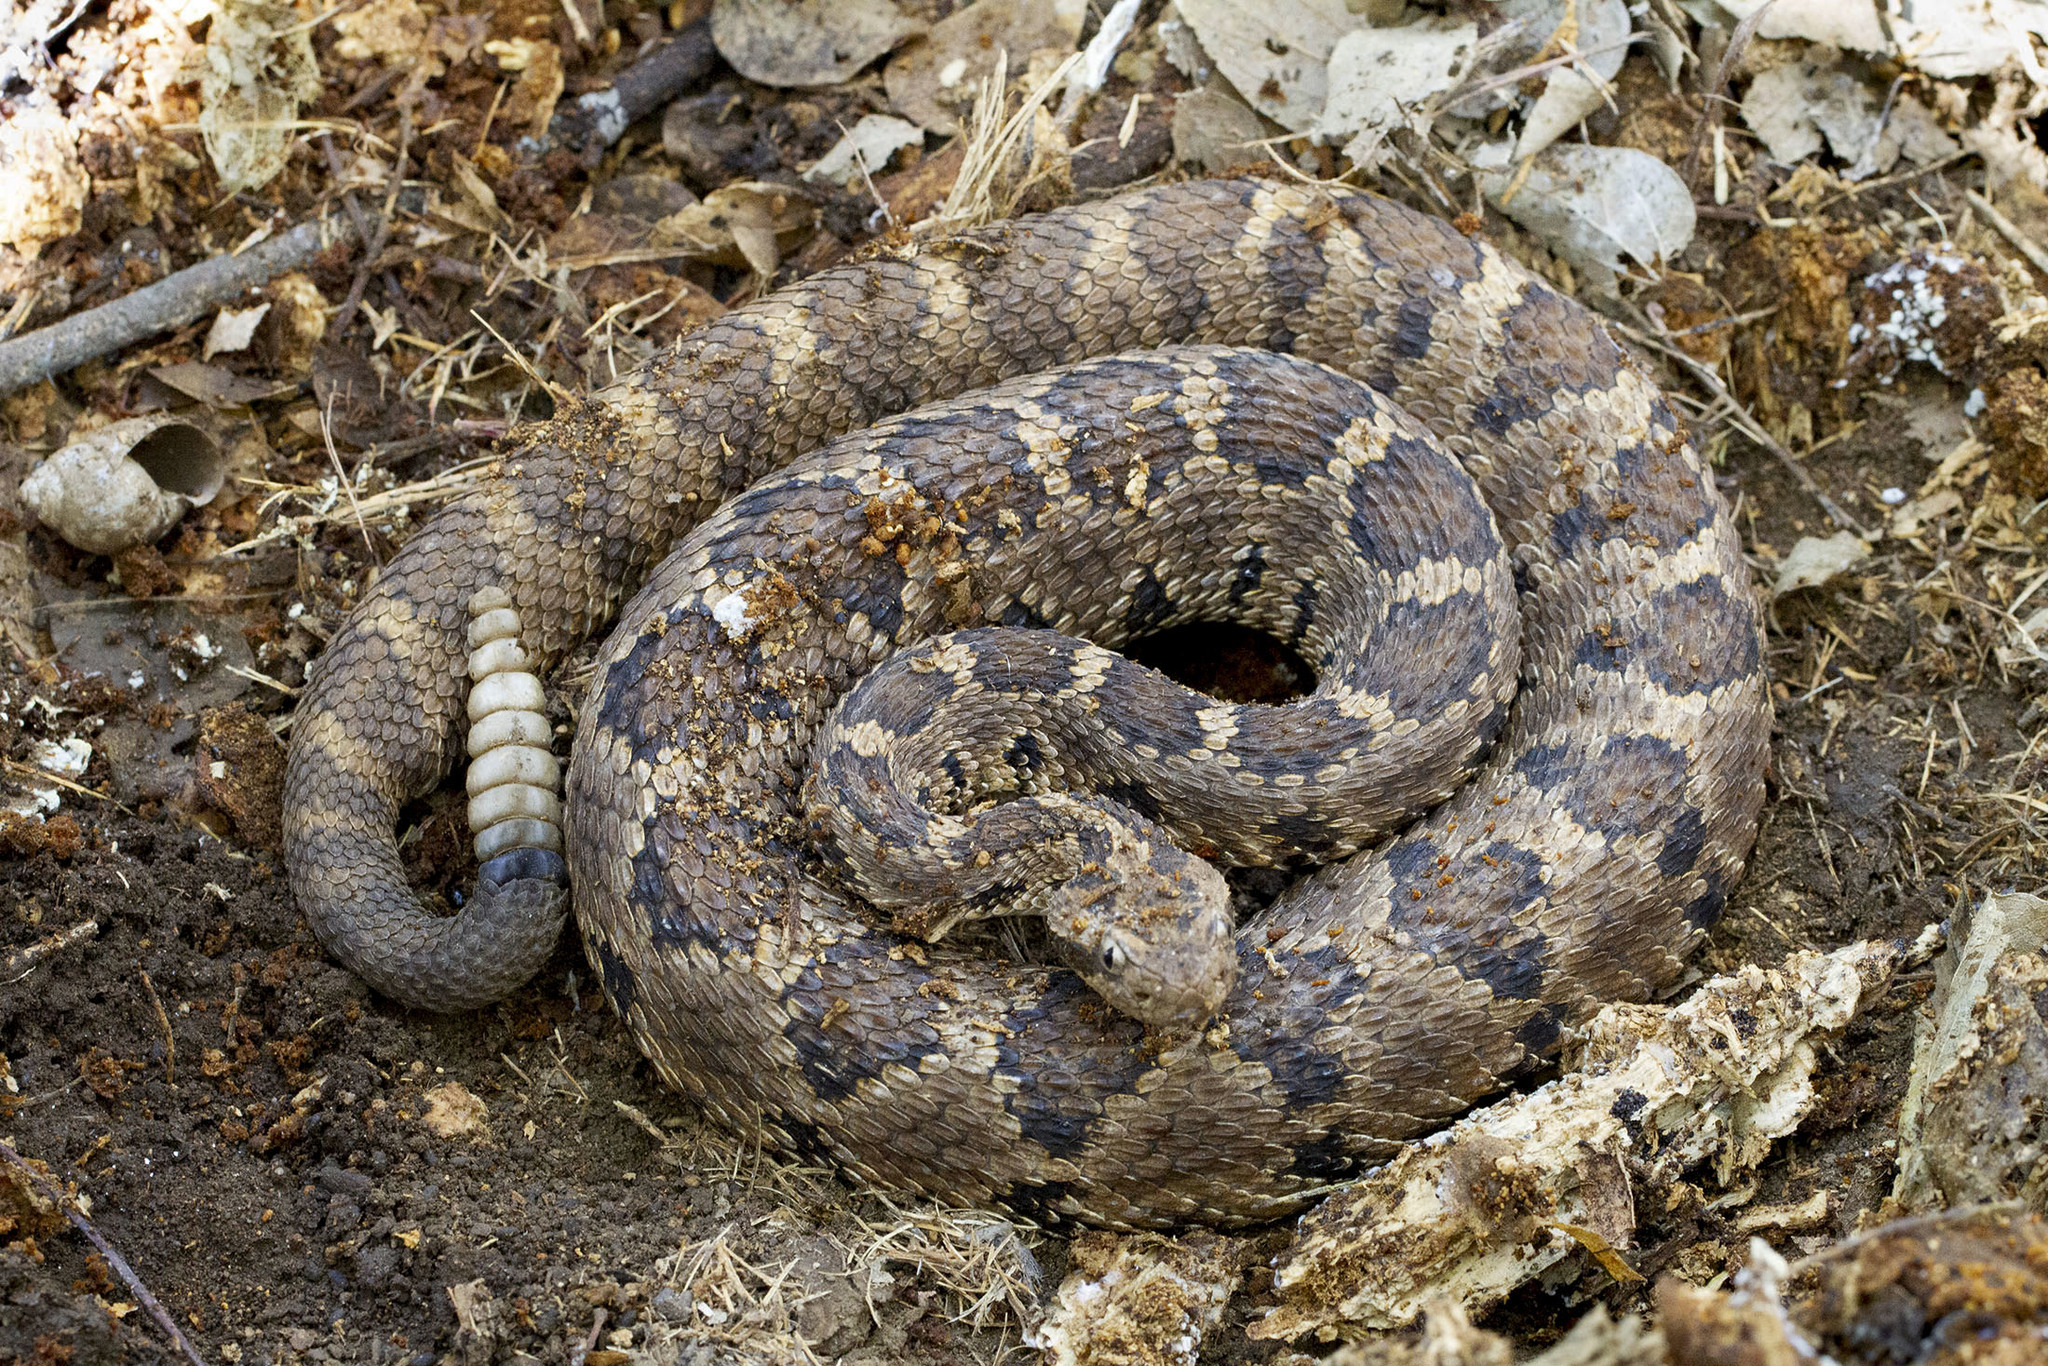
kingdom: Animalia
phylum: Chordata
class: Squamata
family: Viperidae
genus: Crotalus
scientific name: Crotalus enyo
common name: Lower california rattlesnake
